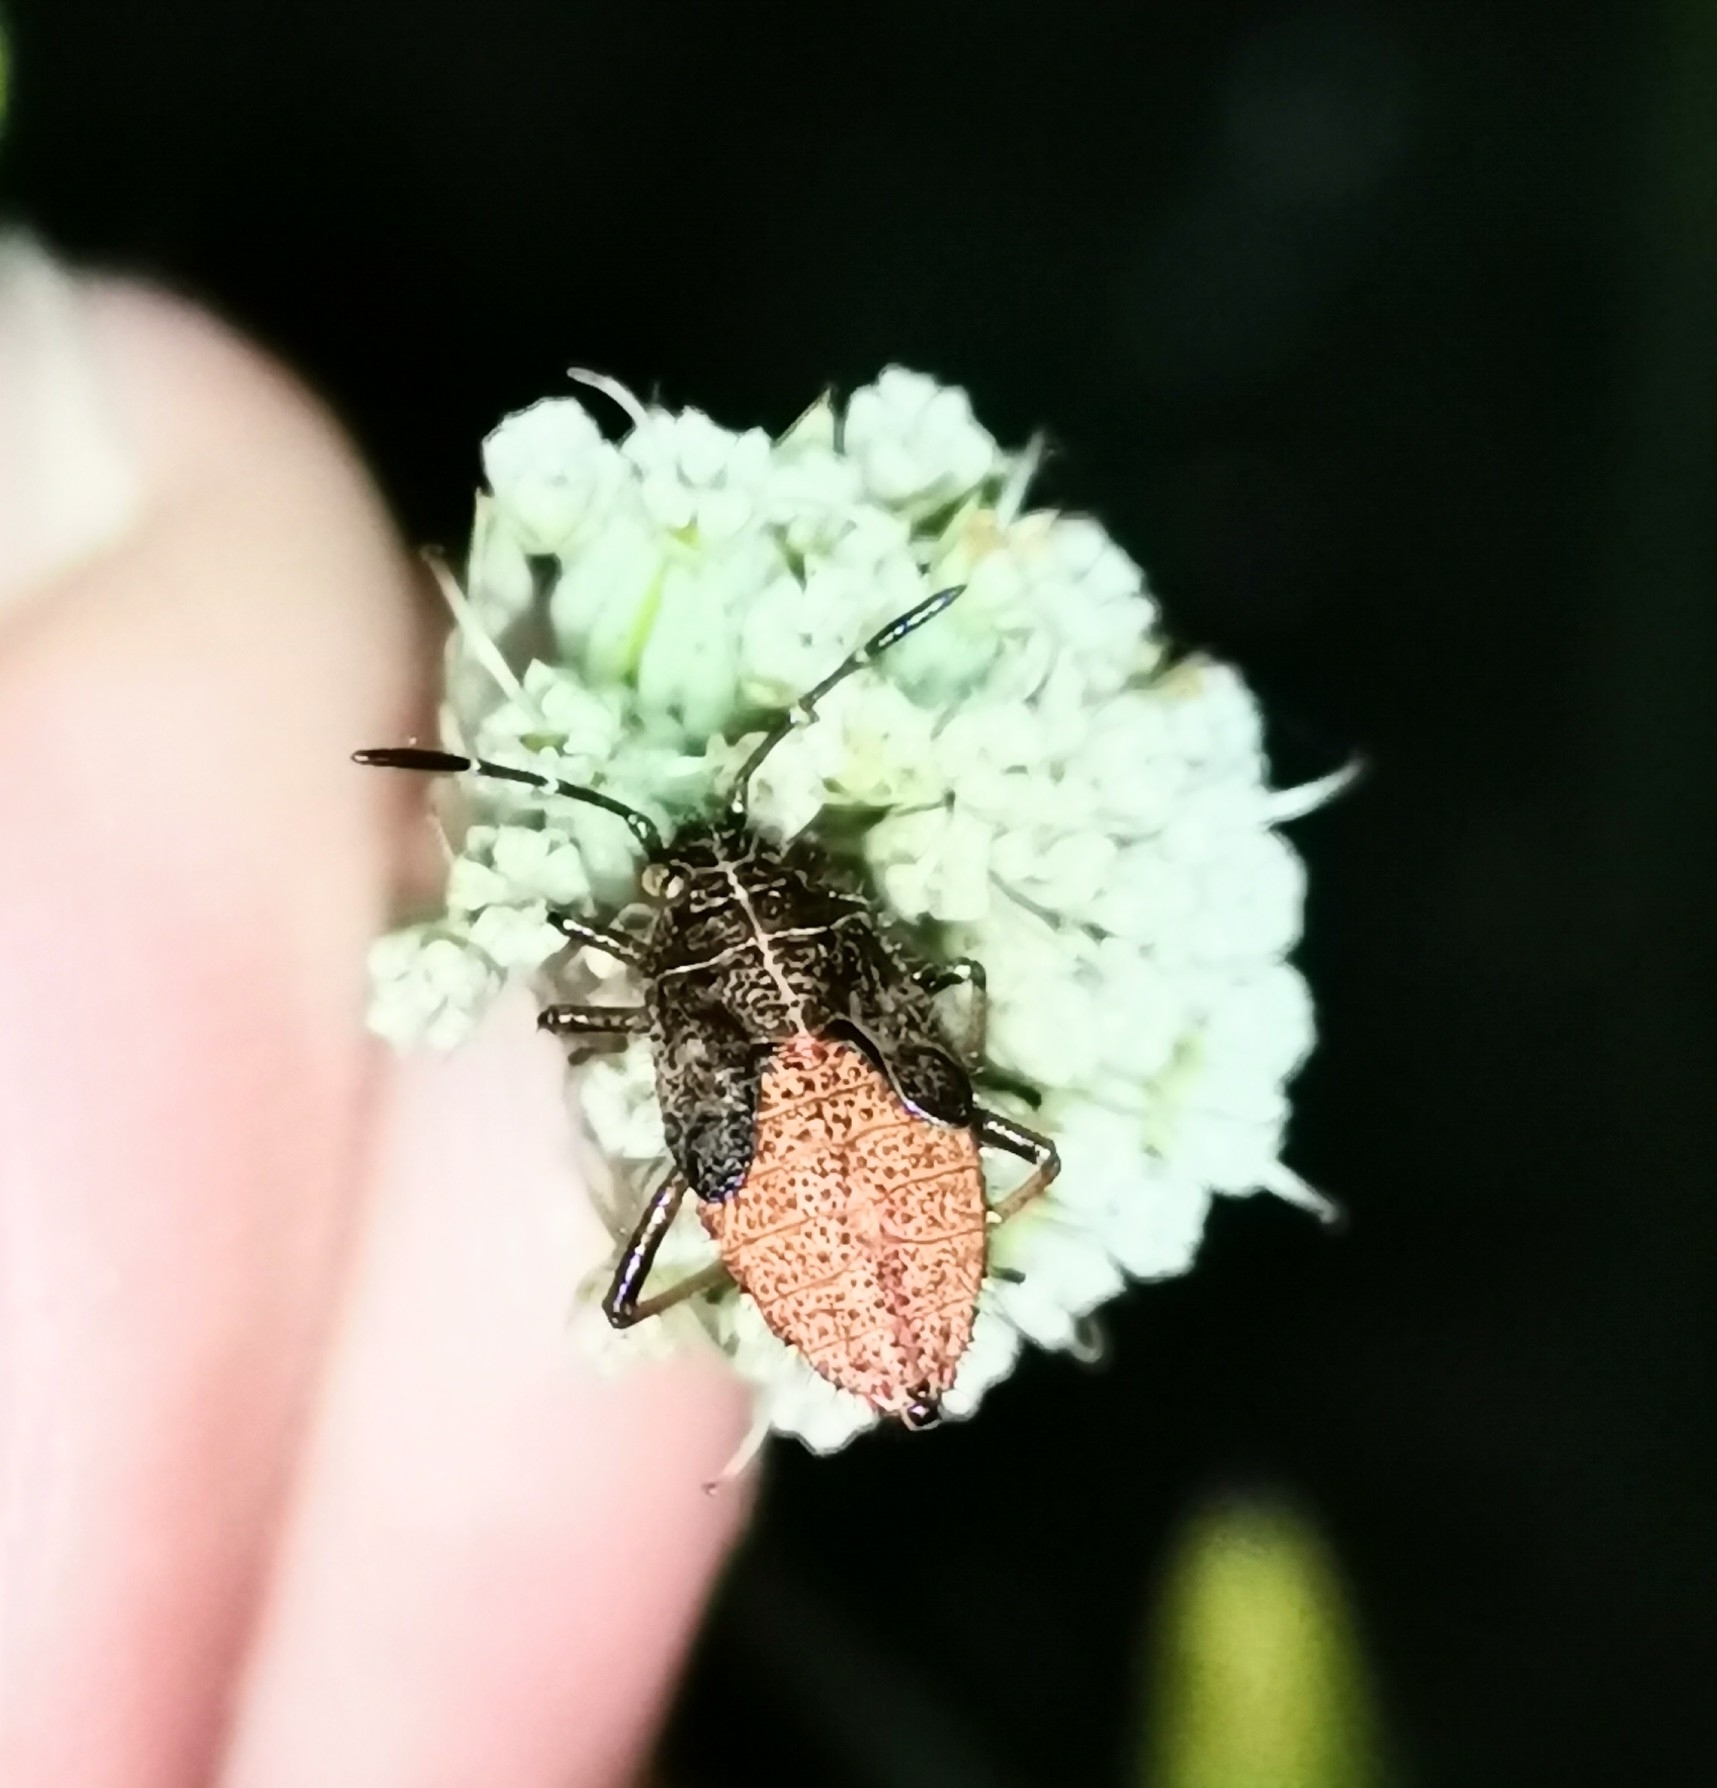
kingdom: Animalia
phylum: Arthropoda
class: Insecta
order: Hemiptera
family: Rhopalidae
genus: Corizus
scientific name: Corizus hyoscyami
